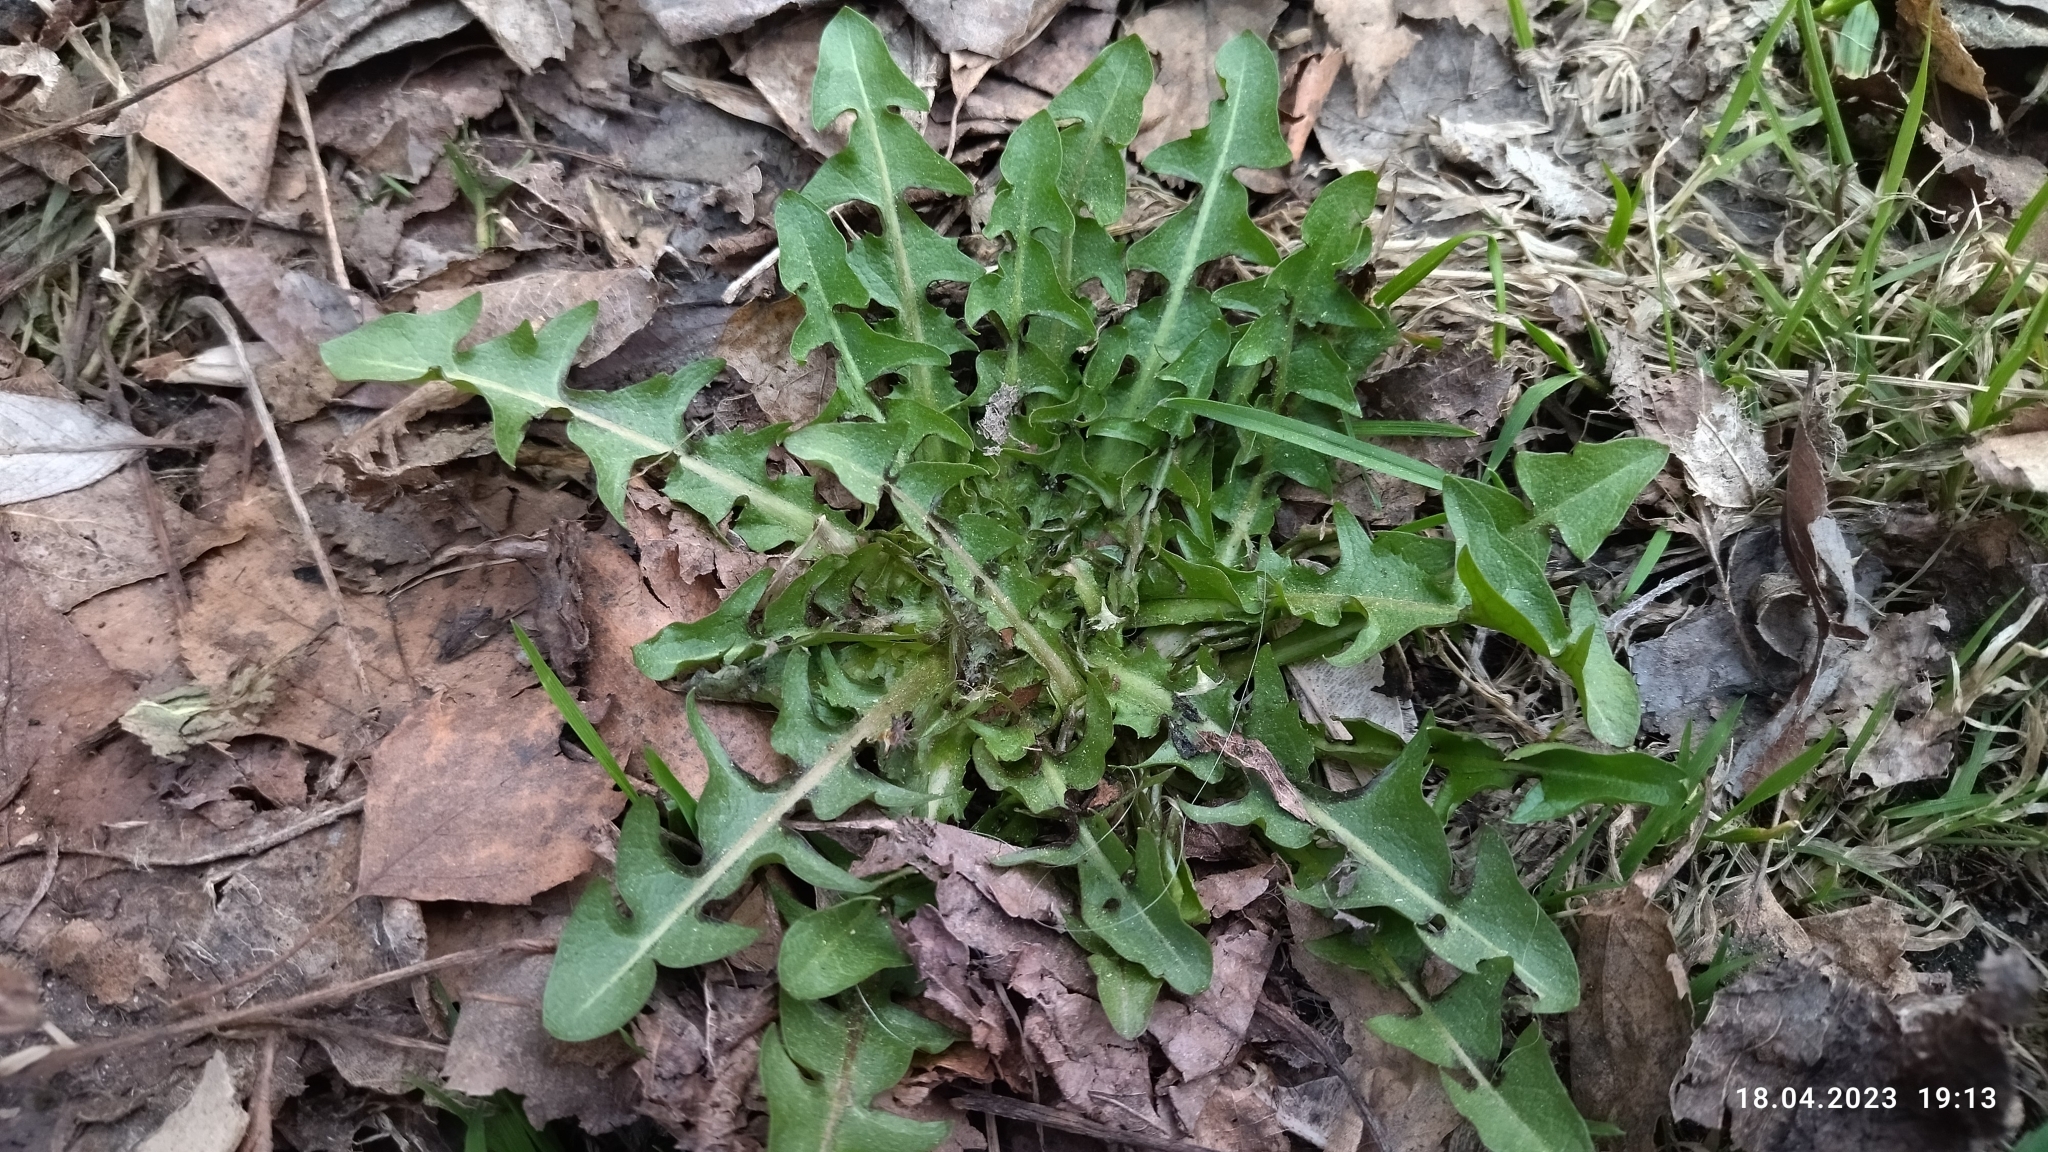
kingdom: Plantae
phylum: Tracheophyta
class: Magnoliopsida
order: Asterales
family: Asteraceae
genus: Taraxacum
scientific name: Taraxacum officinale
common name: Common dandelion
